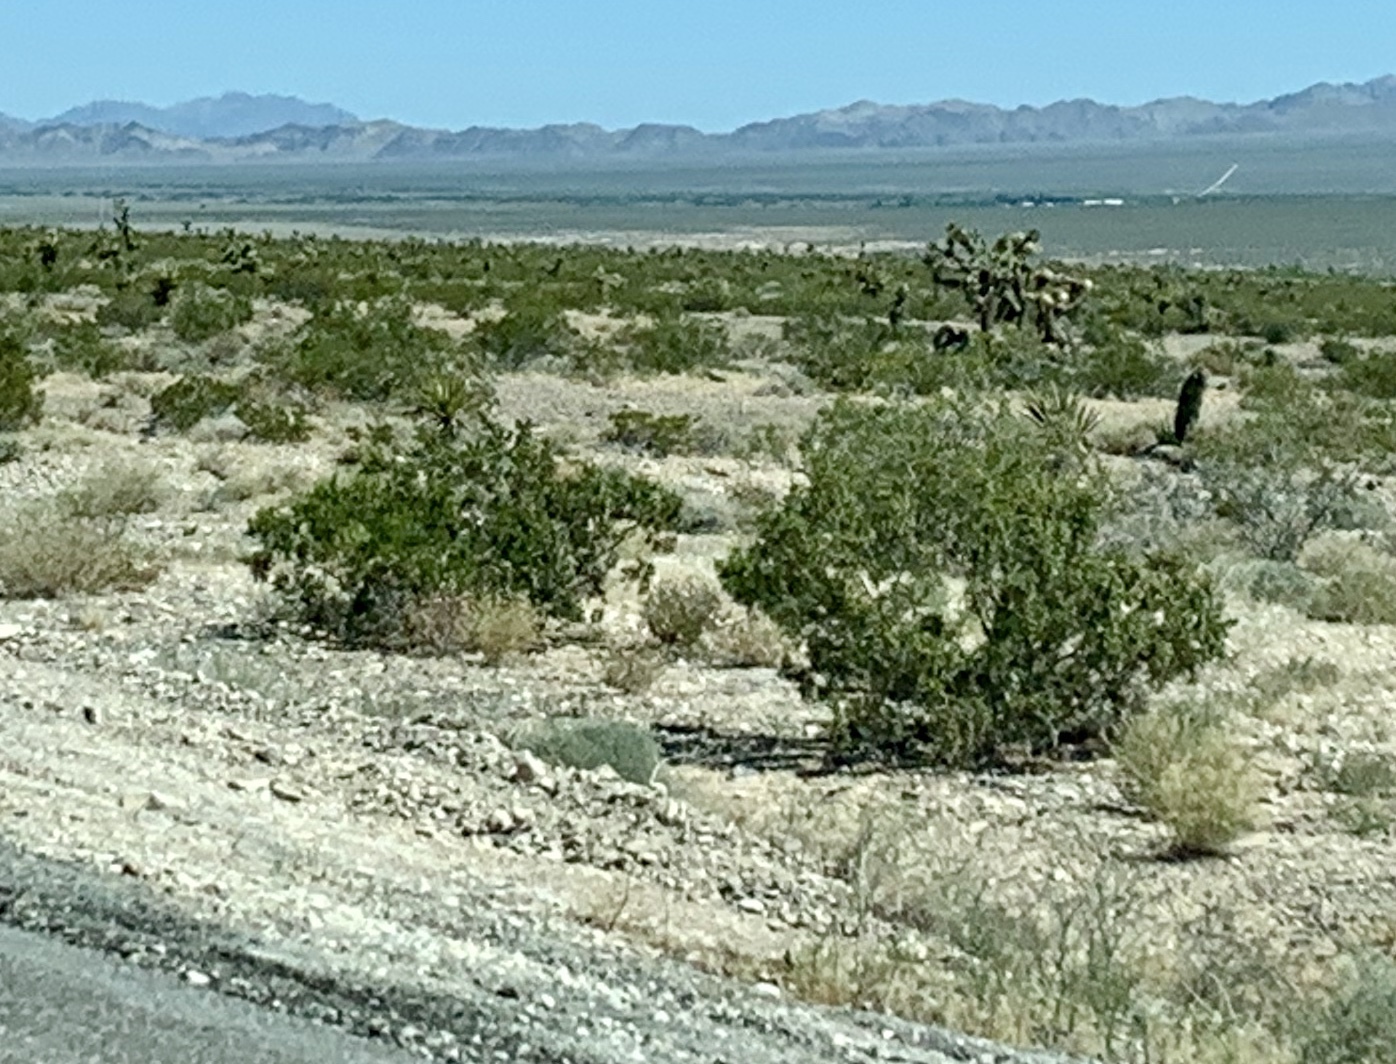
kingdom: Plantae
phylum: Tracheophyta
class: Magnoliopsida
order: Zygophyllales
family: Zygophyllaceae
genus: Larrea
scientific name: Larrea tridentata
